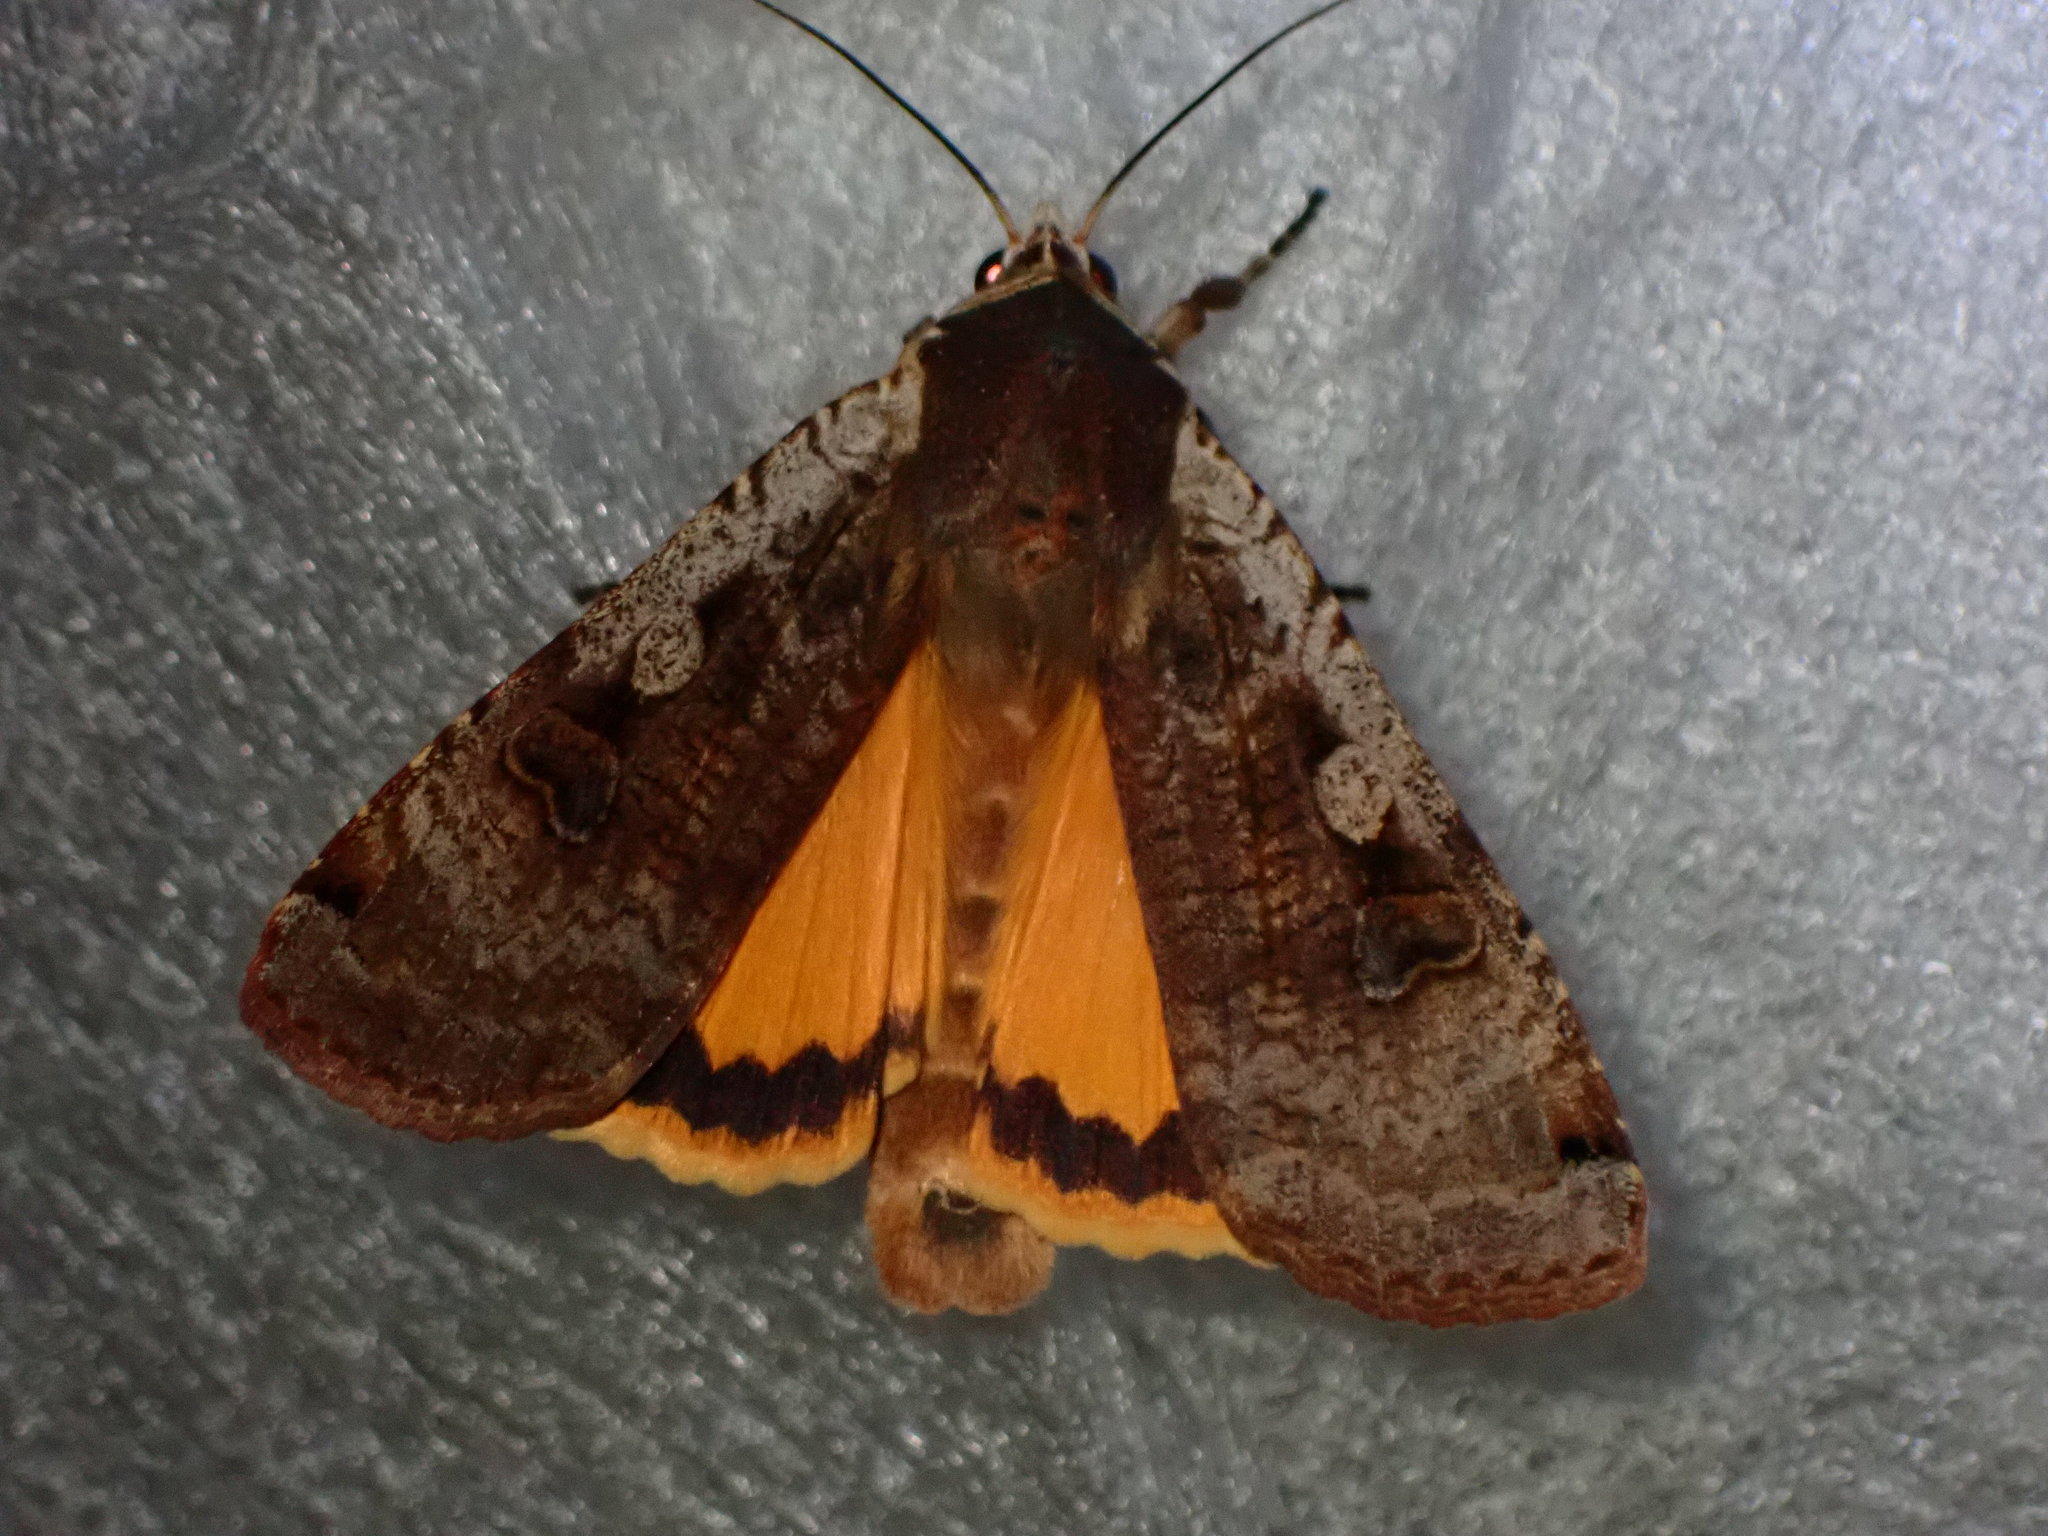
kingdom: Animalia
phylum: Arthropoda
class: Insecta
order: Lepidoptera
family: Noctuidae
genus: Noctua
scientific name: Noctua pronuba
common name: Large yellow underwing
